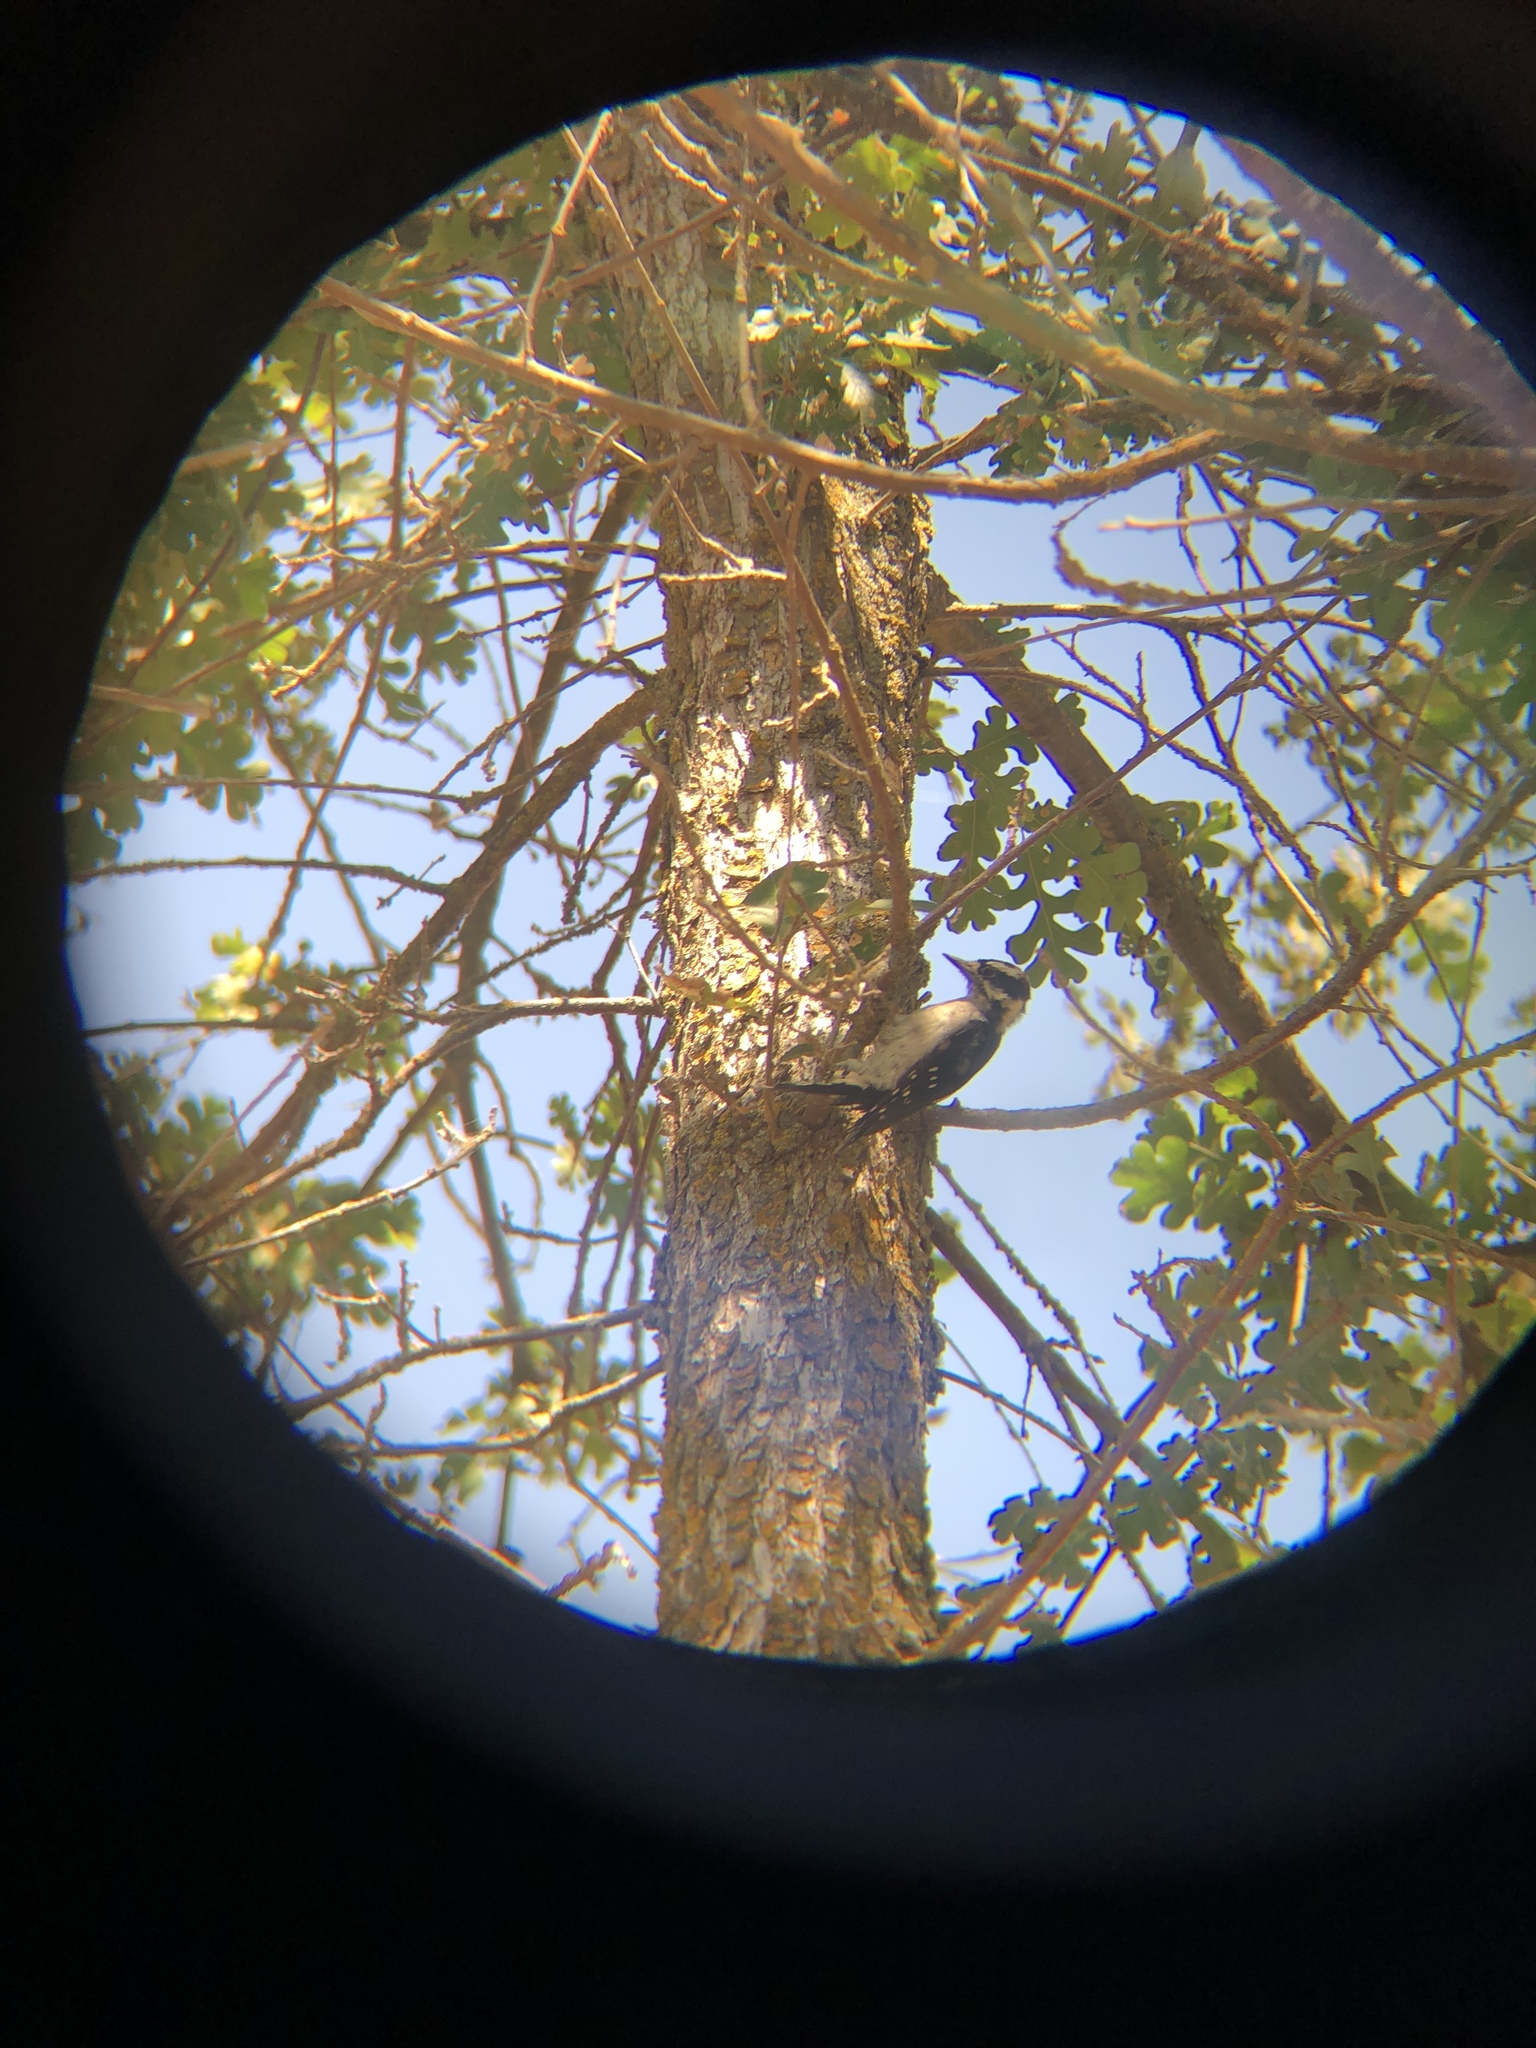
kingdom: Animalia
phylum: Chordata
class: Aves
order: Piciformes
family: Picidae
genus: Dryobates
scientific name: Dryobates pubescens
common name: Downy woodpecker
